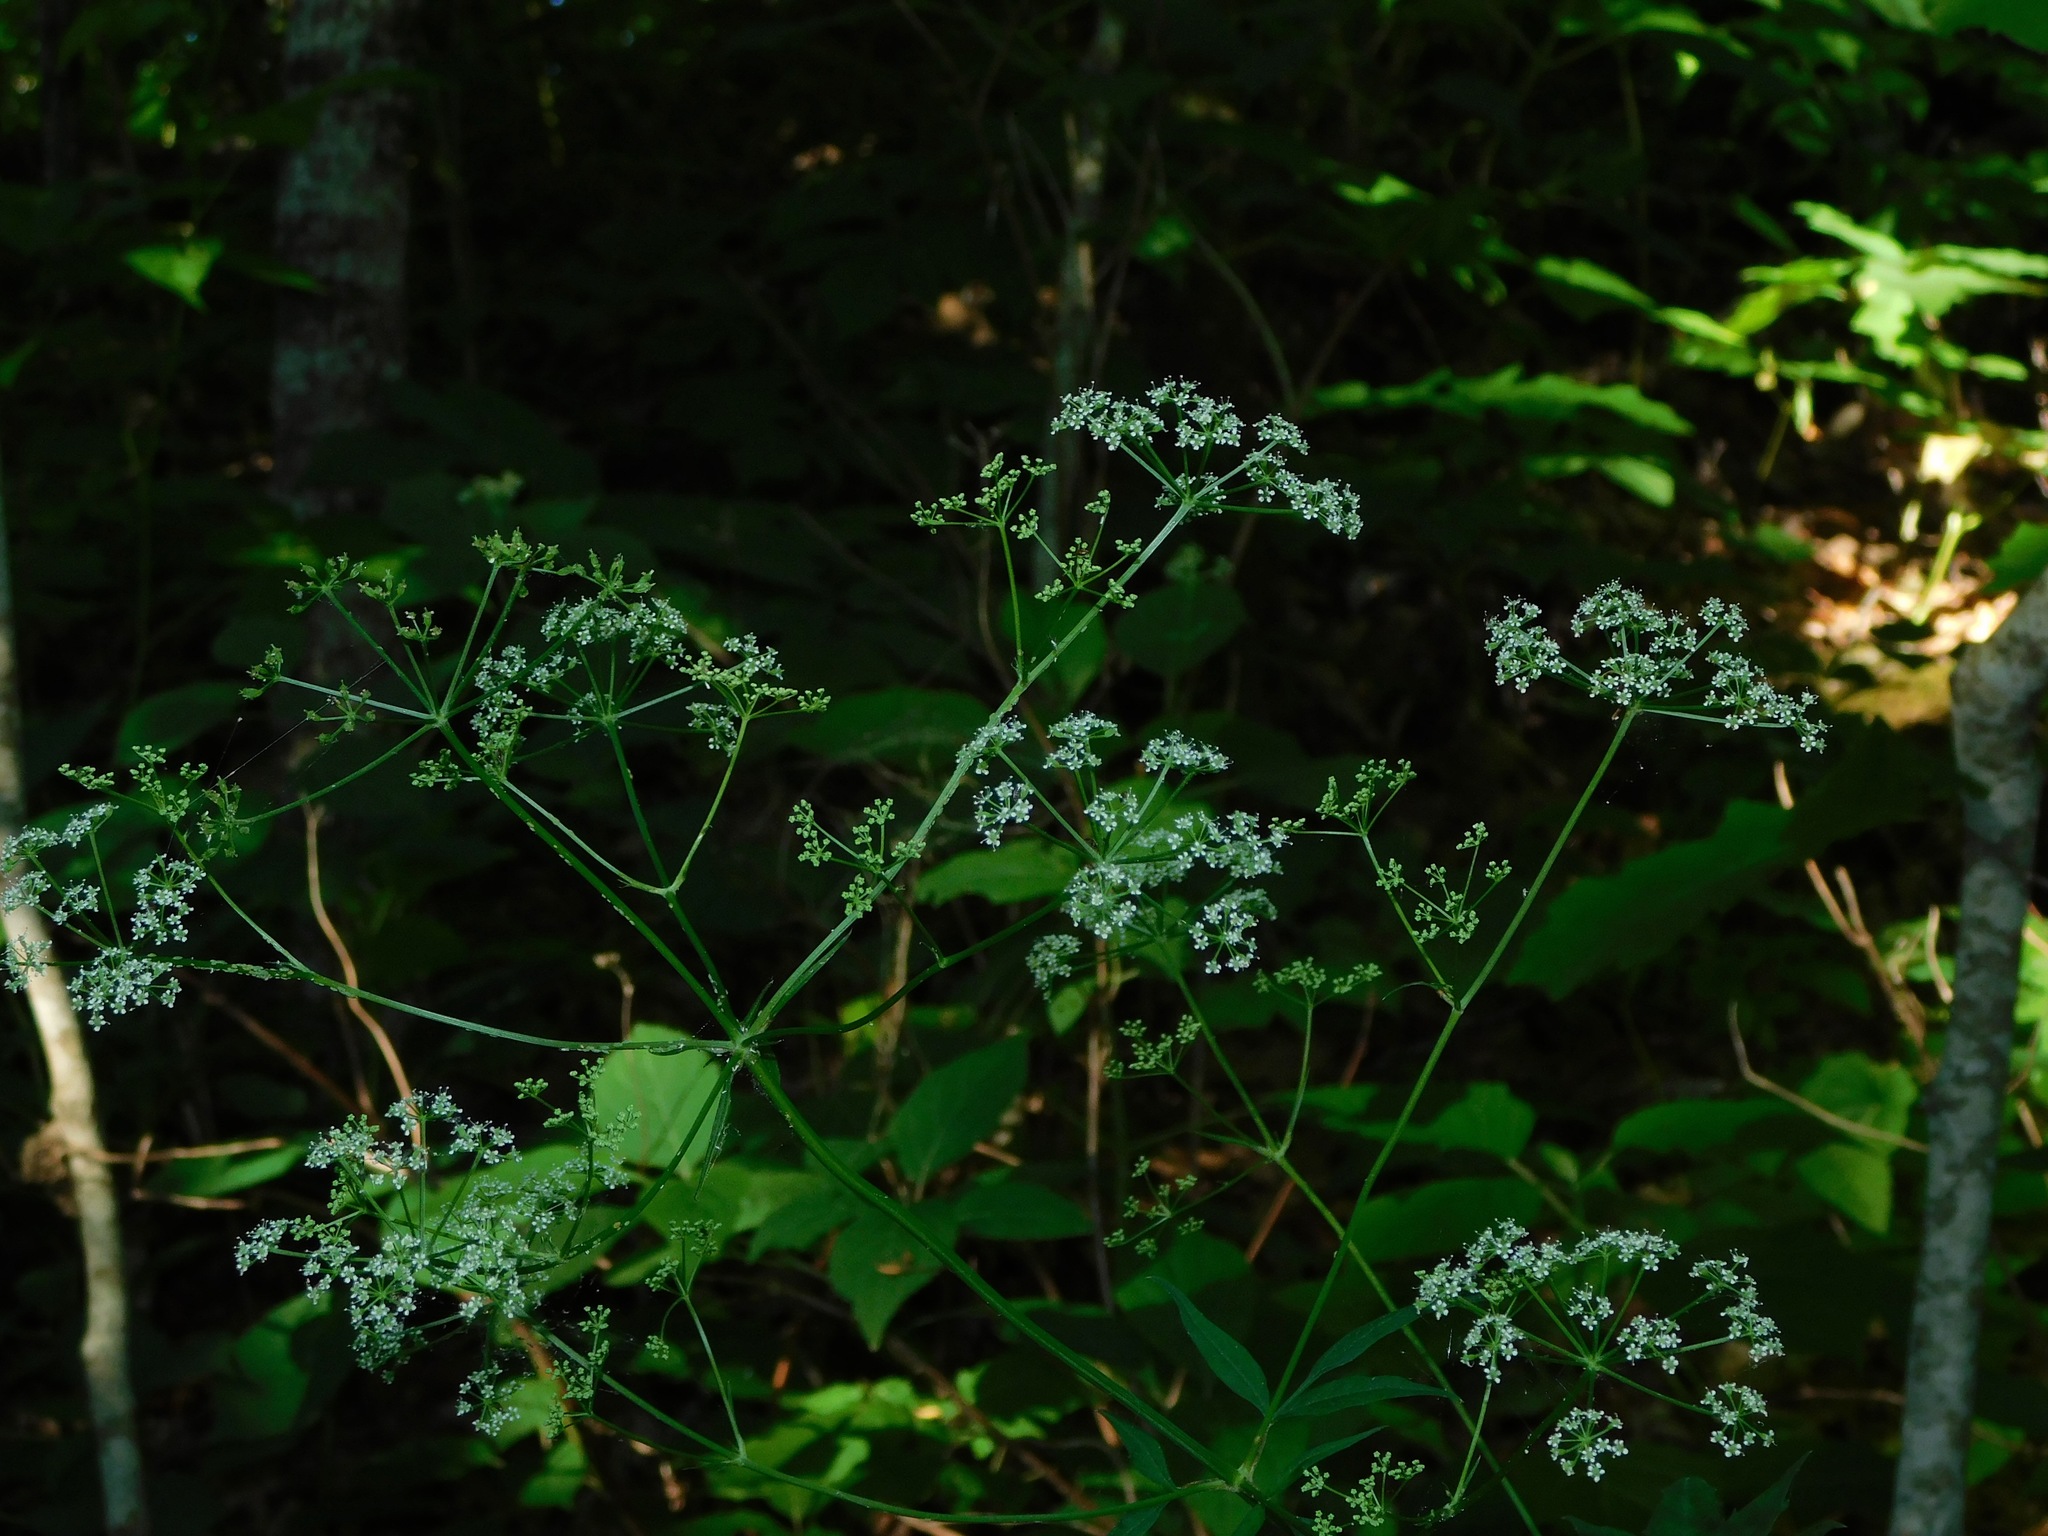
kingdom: Plantae
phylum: Tracheophyta
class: Magnoliopsida
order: Apiales
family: Apiaceae
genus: Ligusticum
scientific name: Ligusticum canadense
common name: American lovage
